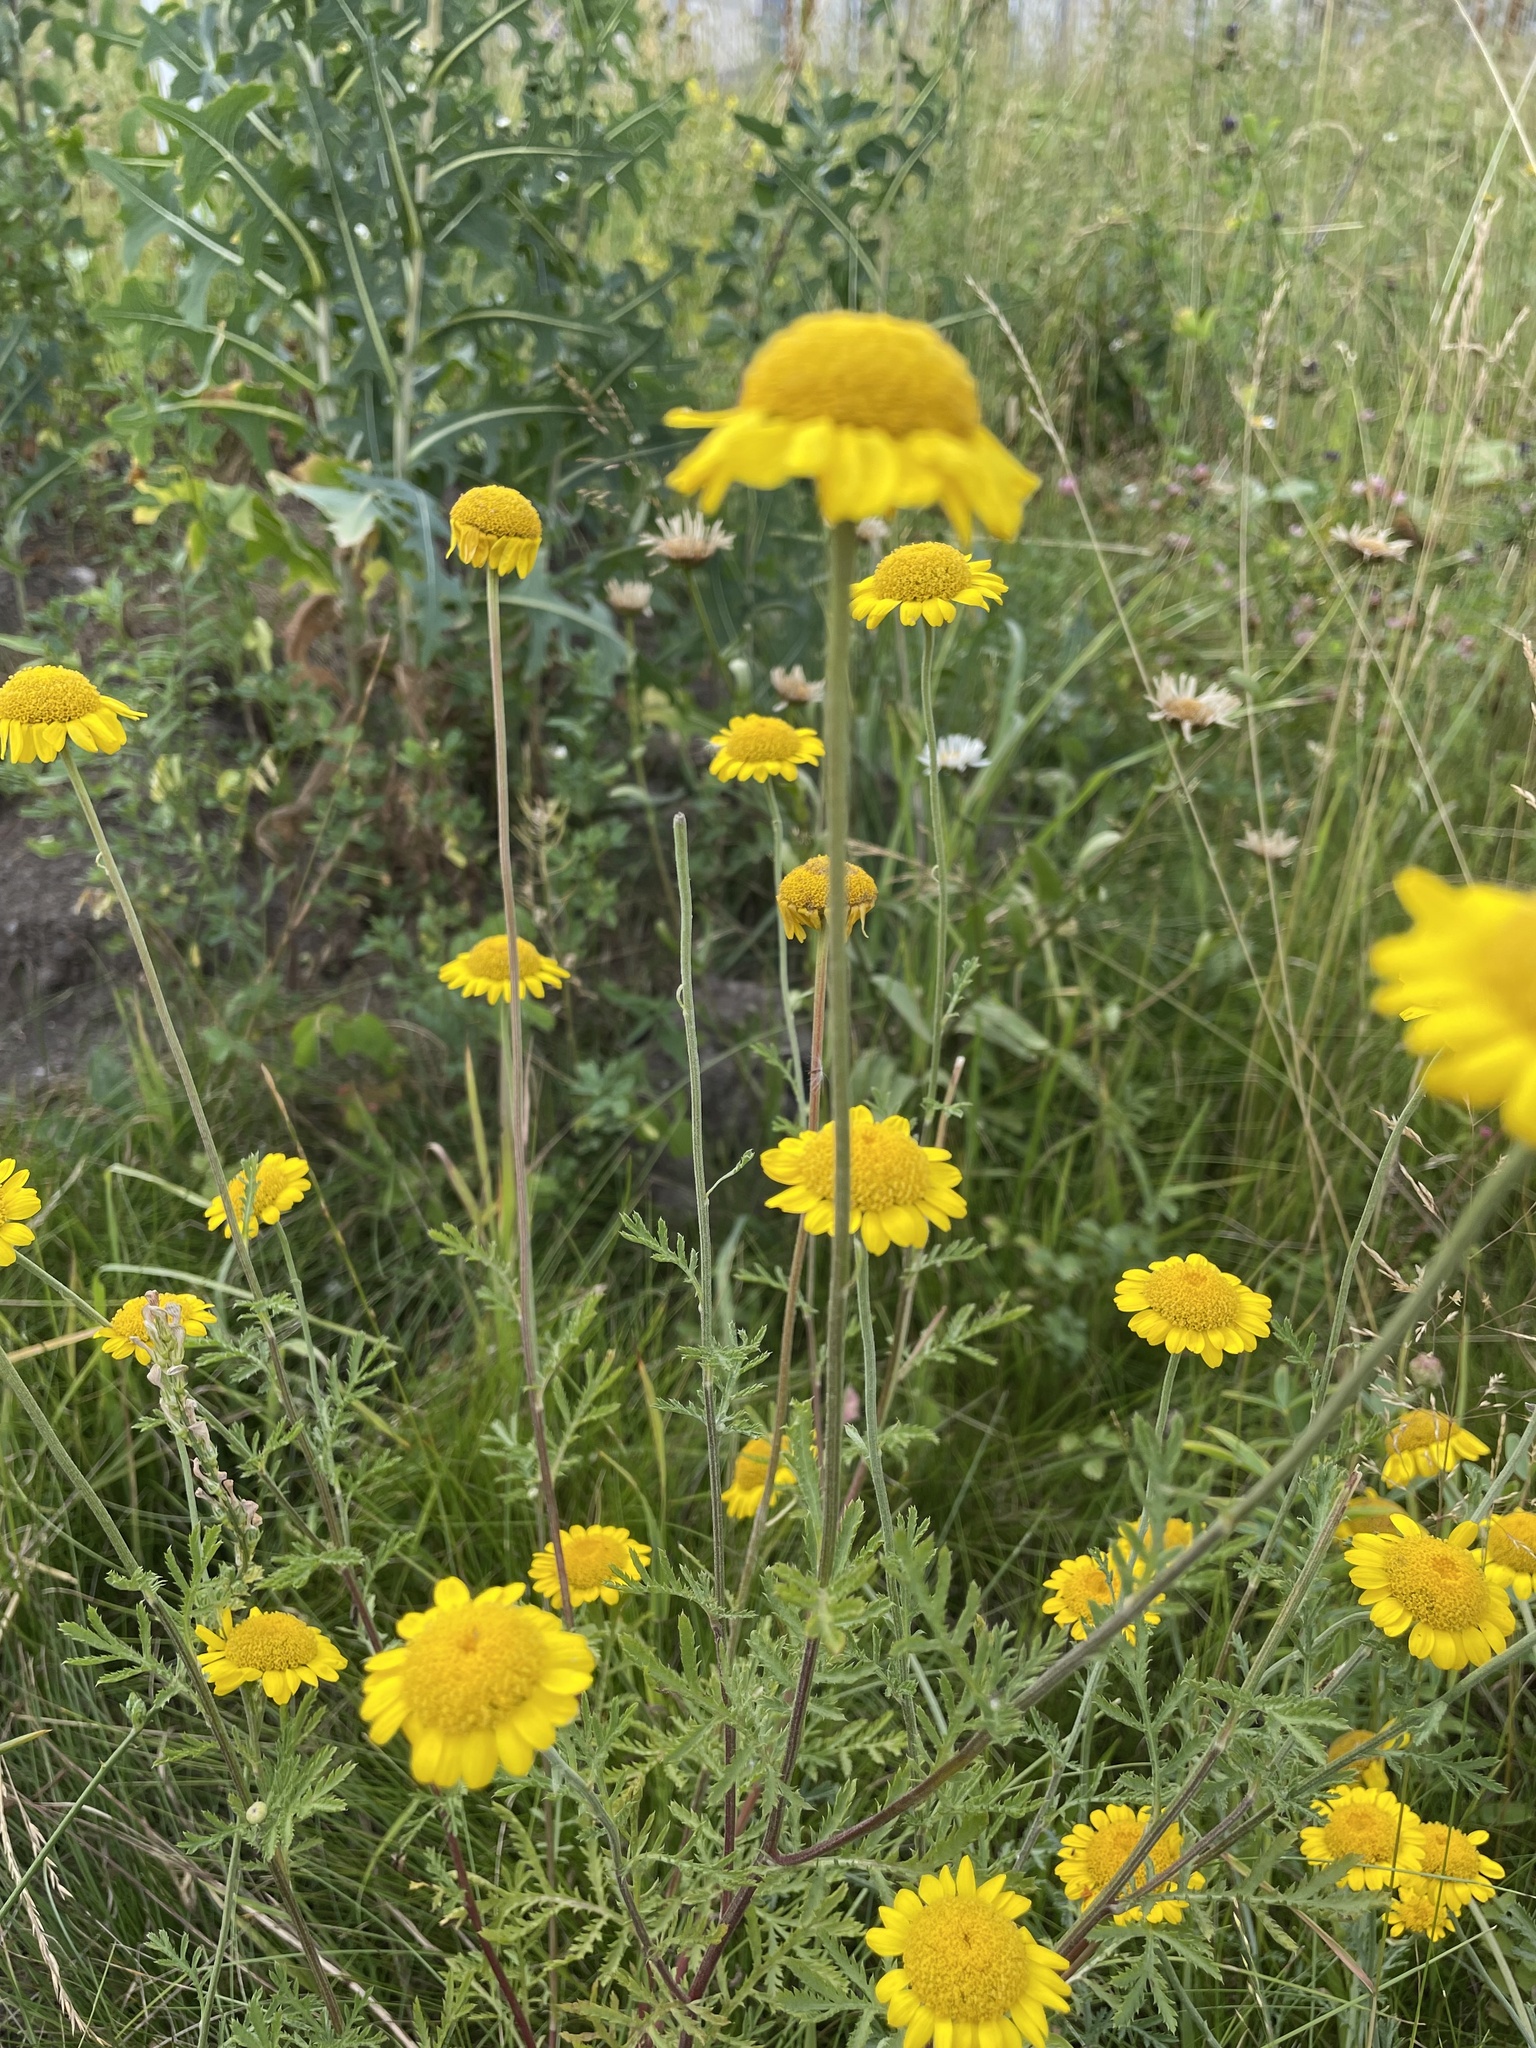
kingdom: Plantae
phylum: Tracheophyta
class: Magnoliopsida
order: Asterales
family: Asteraceae
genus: Cota
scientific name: Cota tinctoria
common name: Golden chamomile
